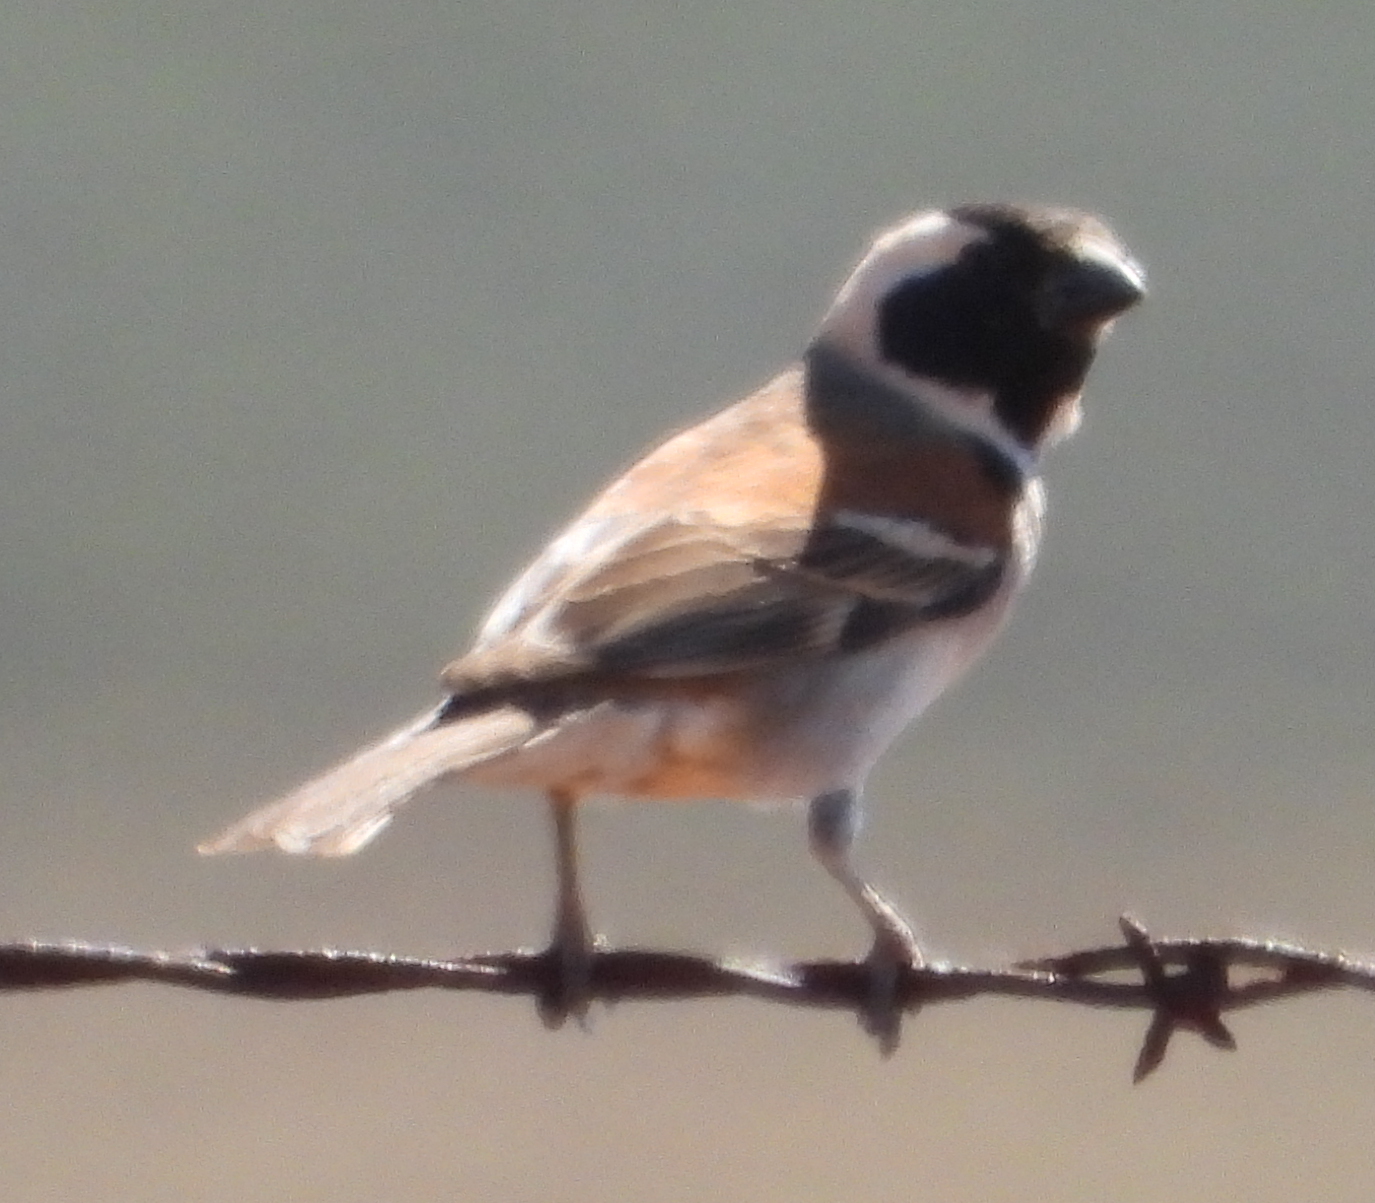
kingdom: Animalia
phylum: Chordata
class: Aves
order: Passeriformes
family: Passeridae
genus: Passer
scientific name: Passer melanurus
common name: Cape sparrow
